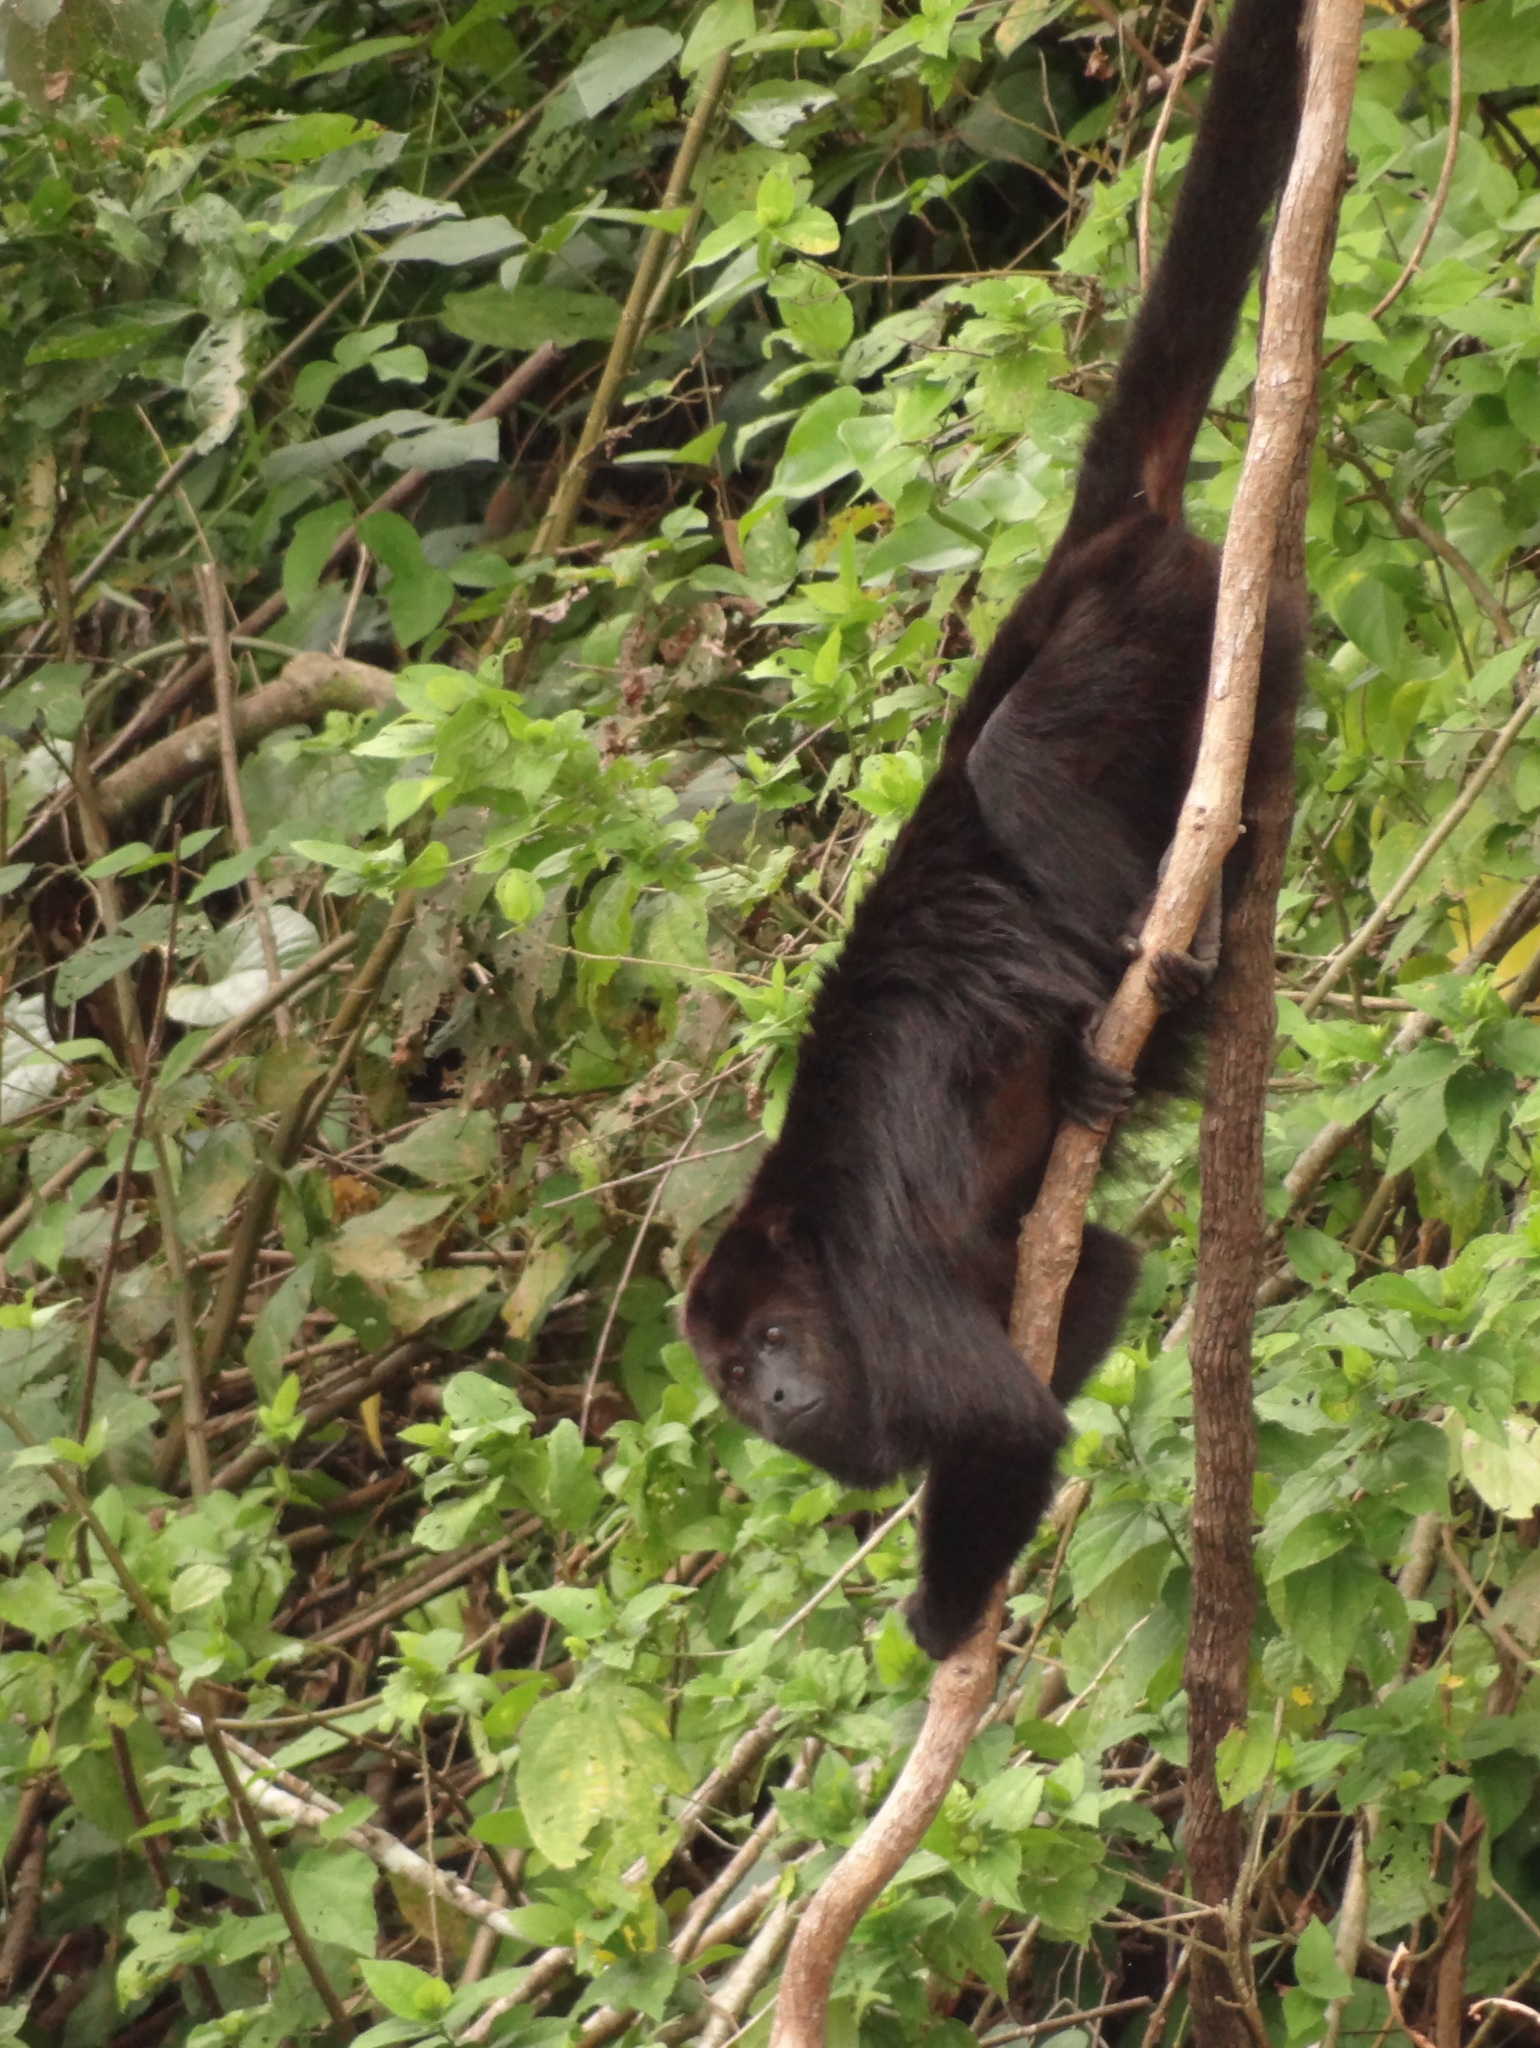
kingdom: Animalia
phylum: Chordata
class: Mammalia
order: Primates
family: Atelidae
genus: Alouatta
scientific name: Alouatta pigra
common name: Guatemalan black howler
